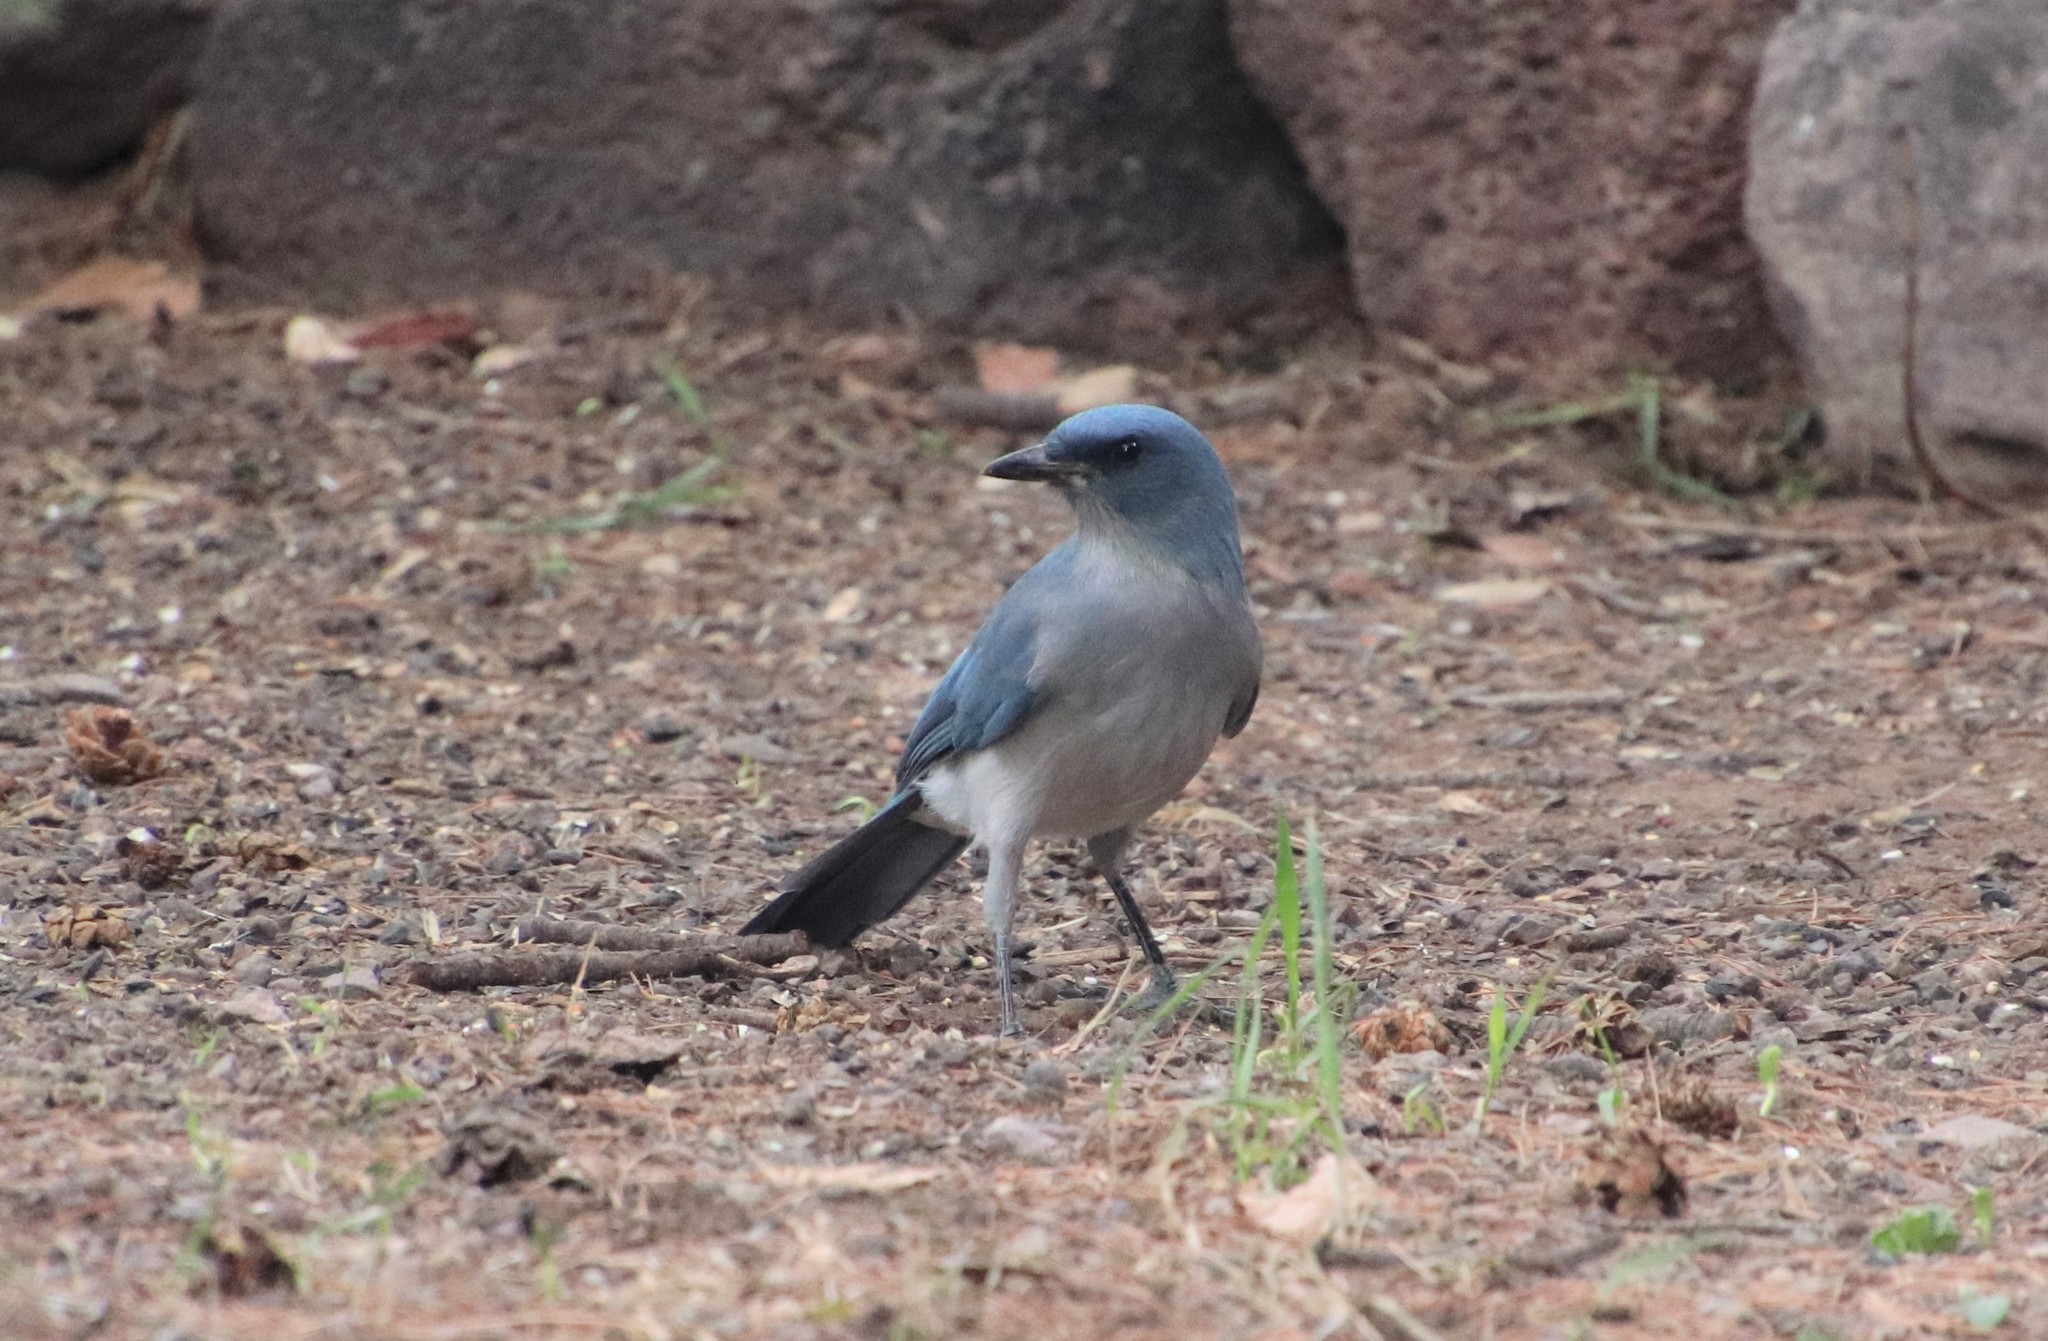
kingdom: Animalia
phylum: Chordata
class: Aves
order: Passeriformes
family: Corvidae
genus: Aphelocoma
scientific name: Aphelocoma wollweberi
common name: Mexican jay
